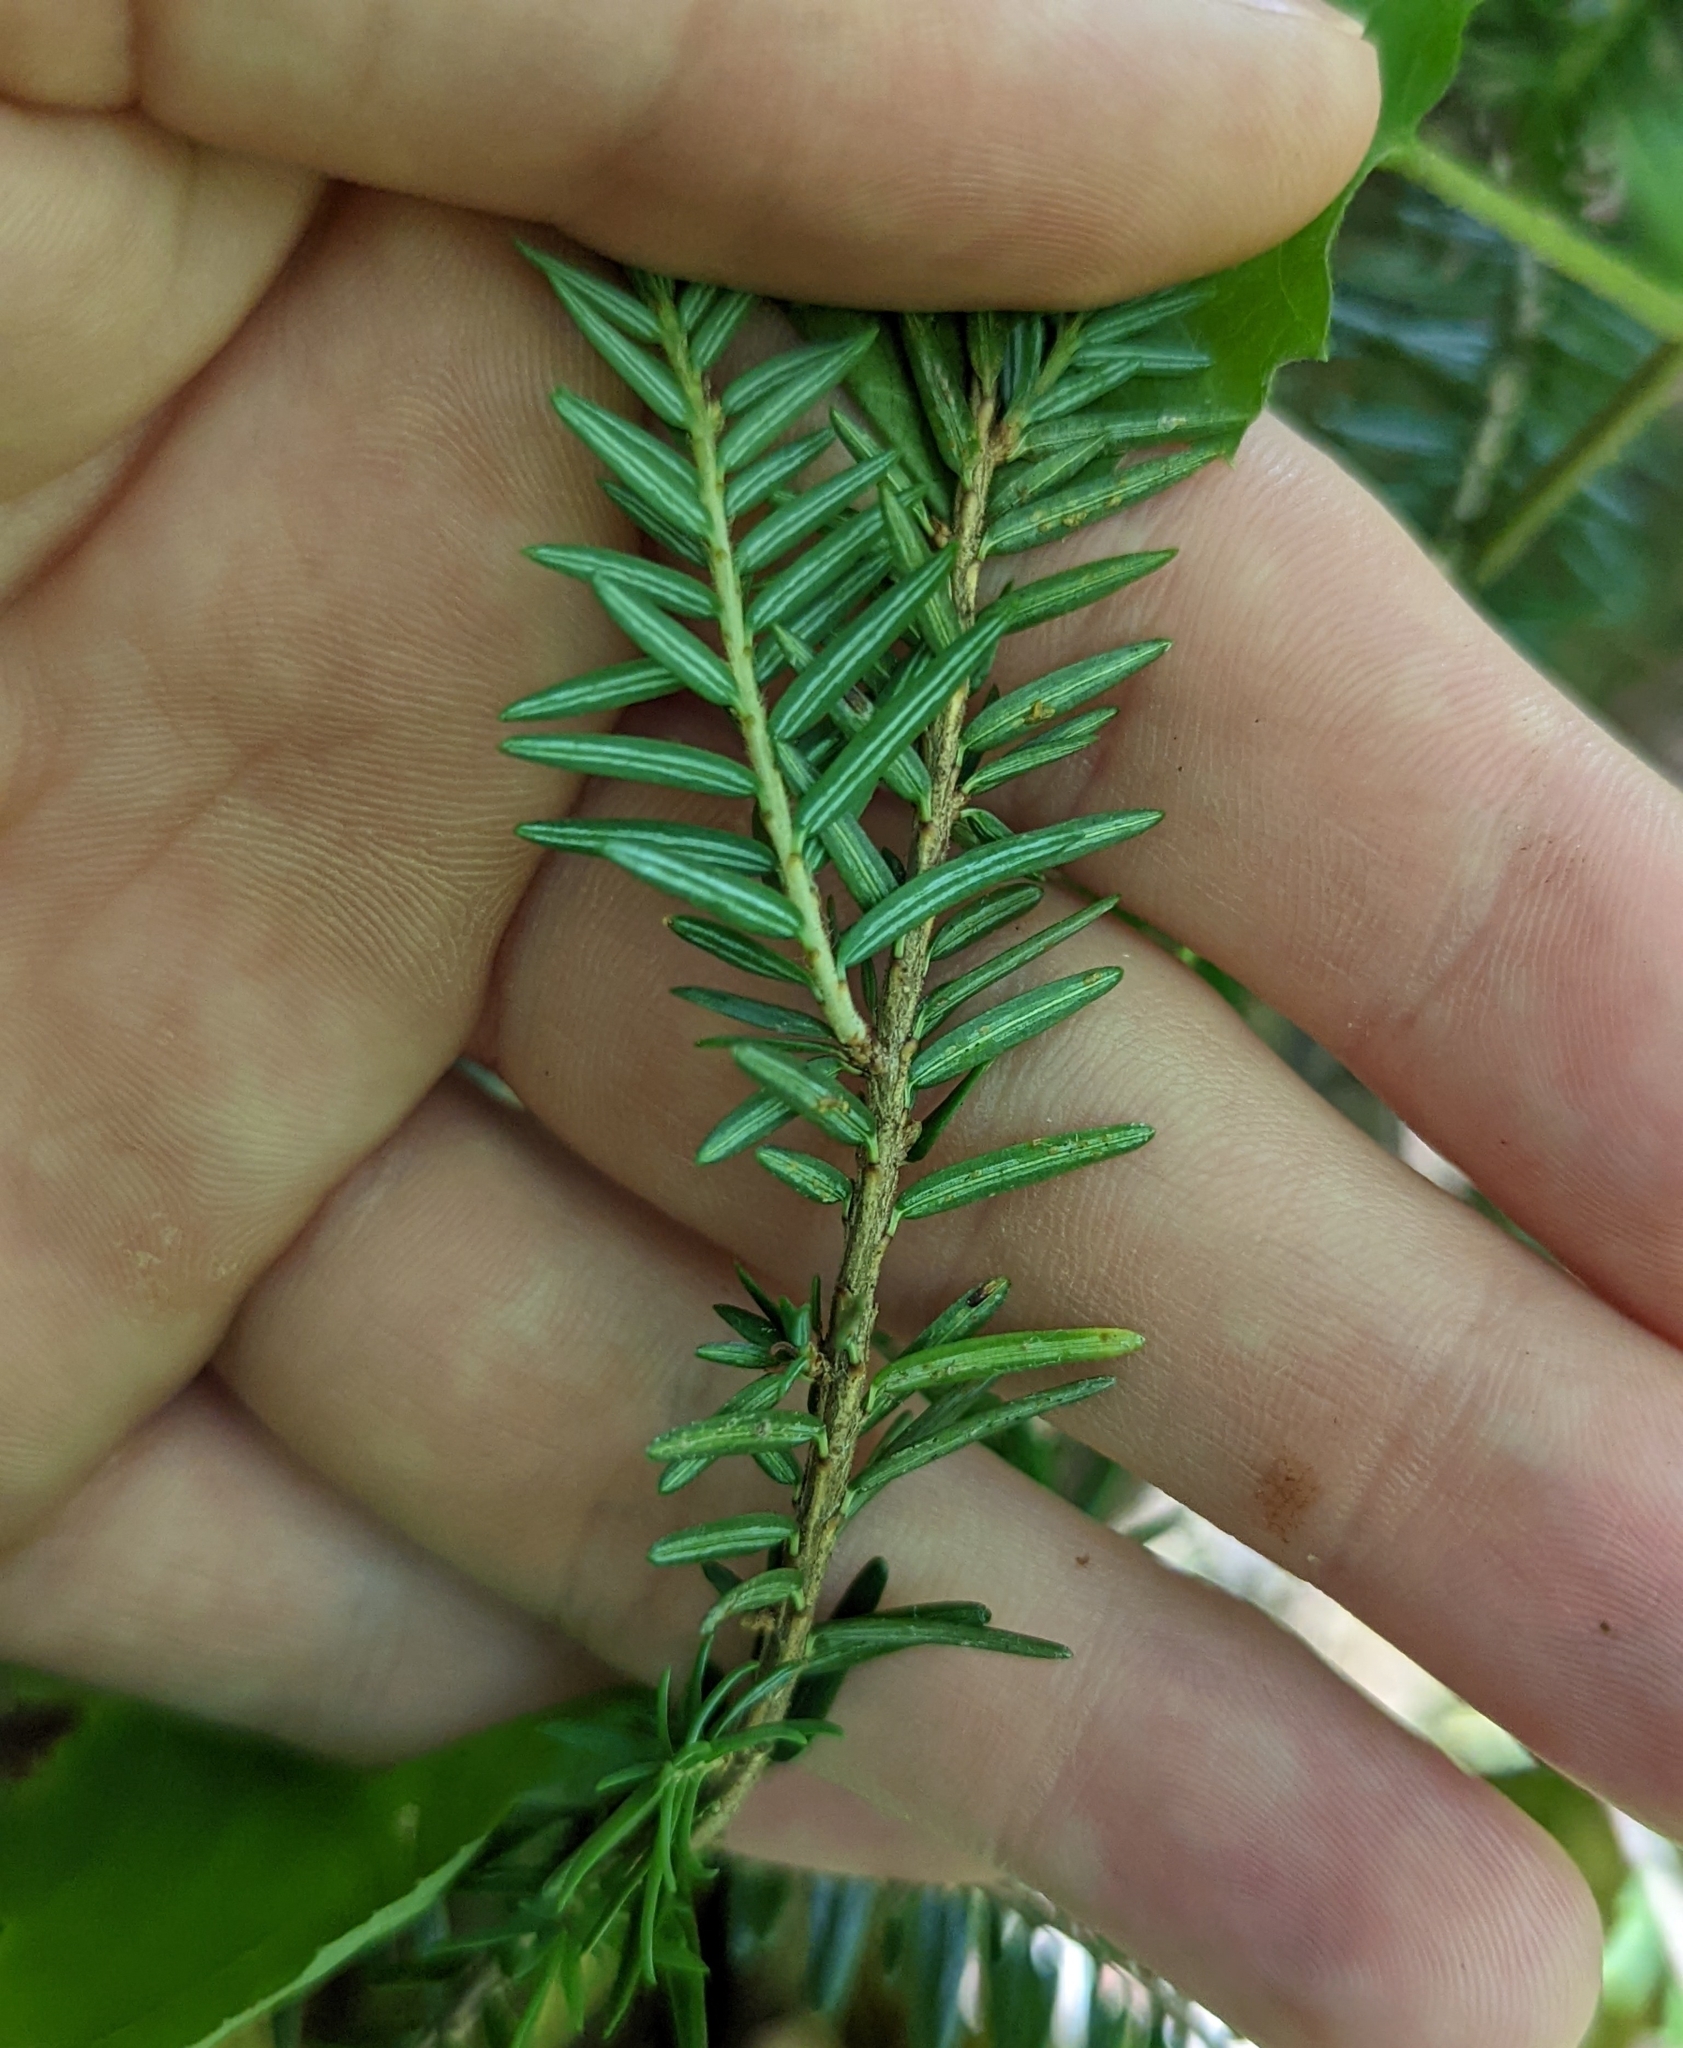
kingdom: Plantae
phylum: Tracheophyta
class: Pinopsida
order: Pinales
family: Pinaceae
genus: Tsuga
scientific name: Tsuga canadensis
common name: Eastern hemlock
